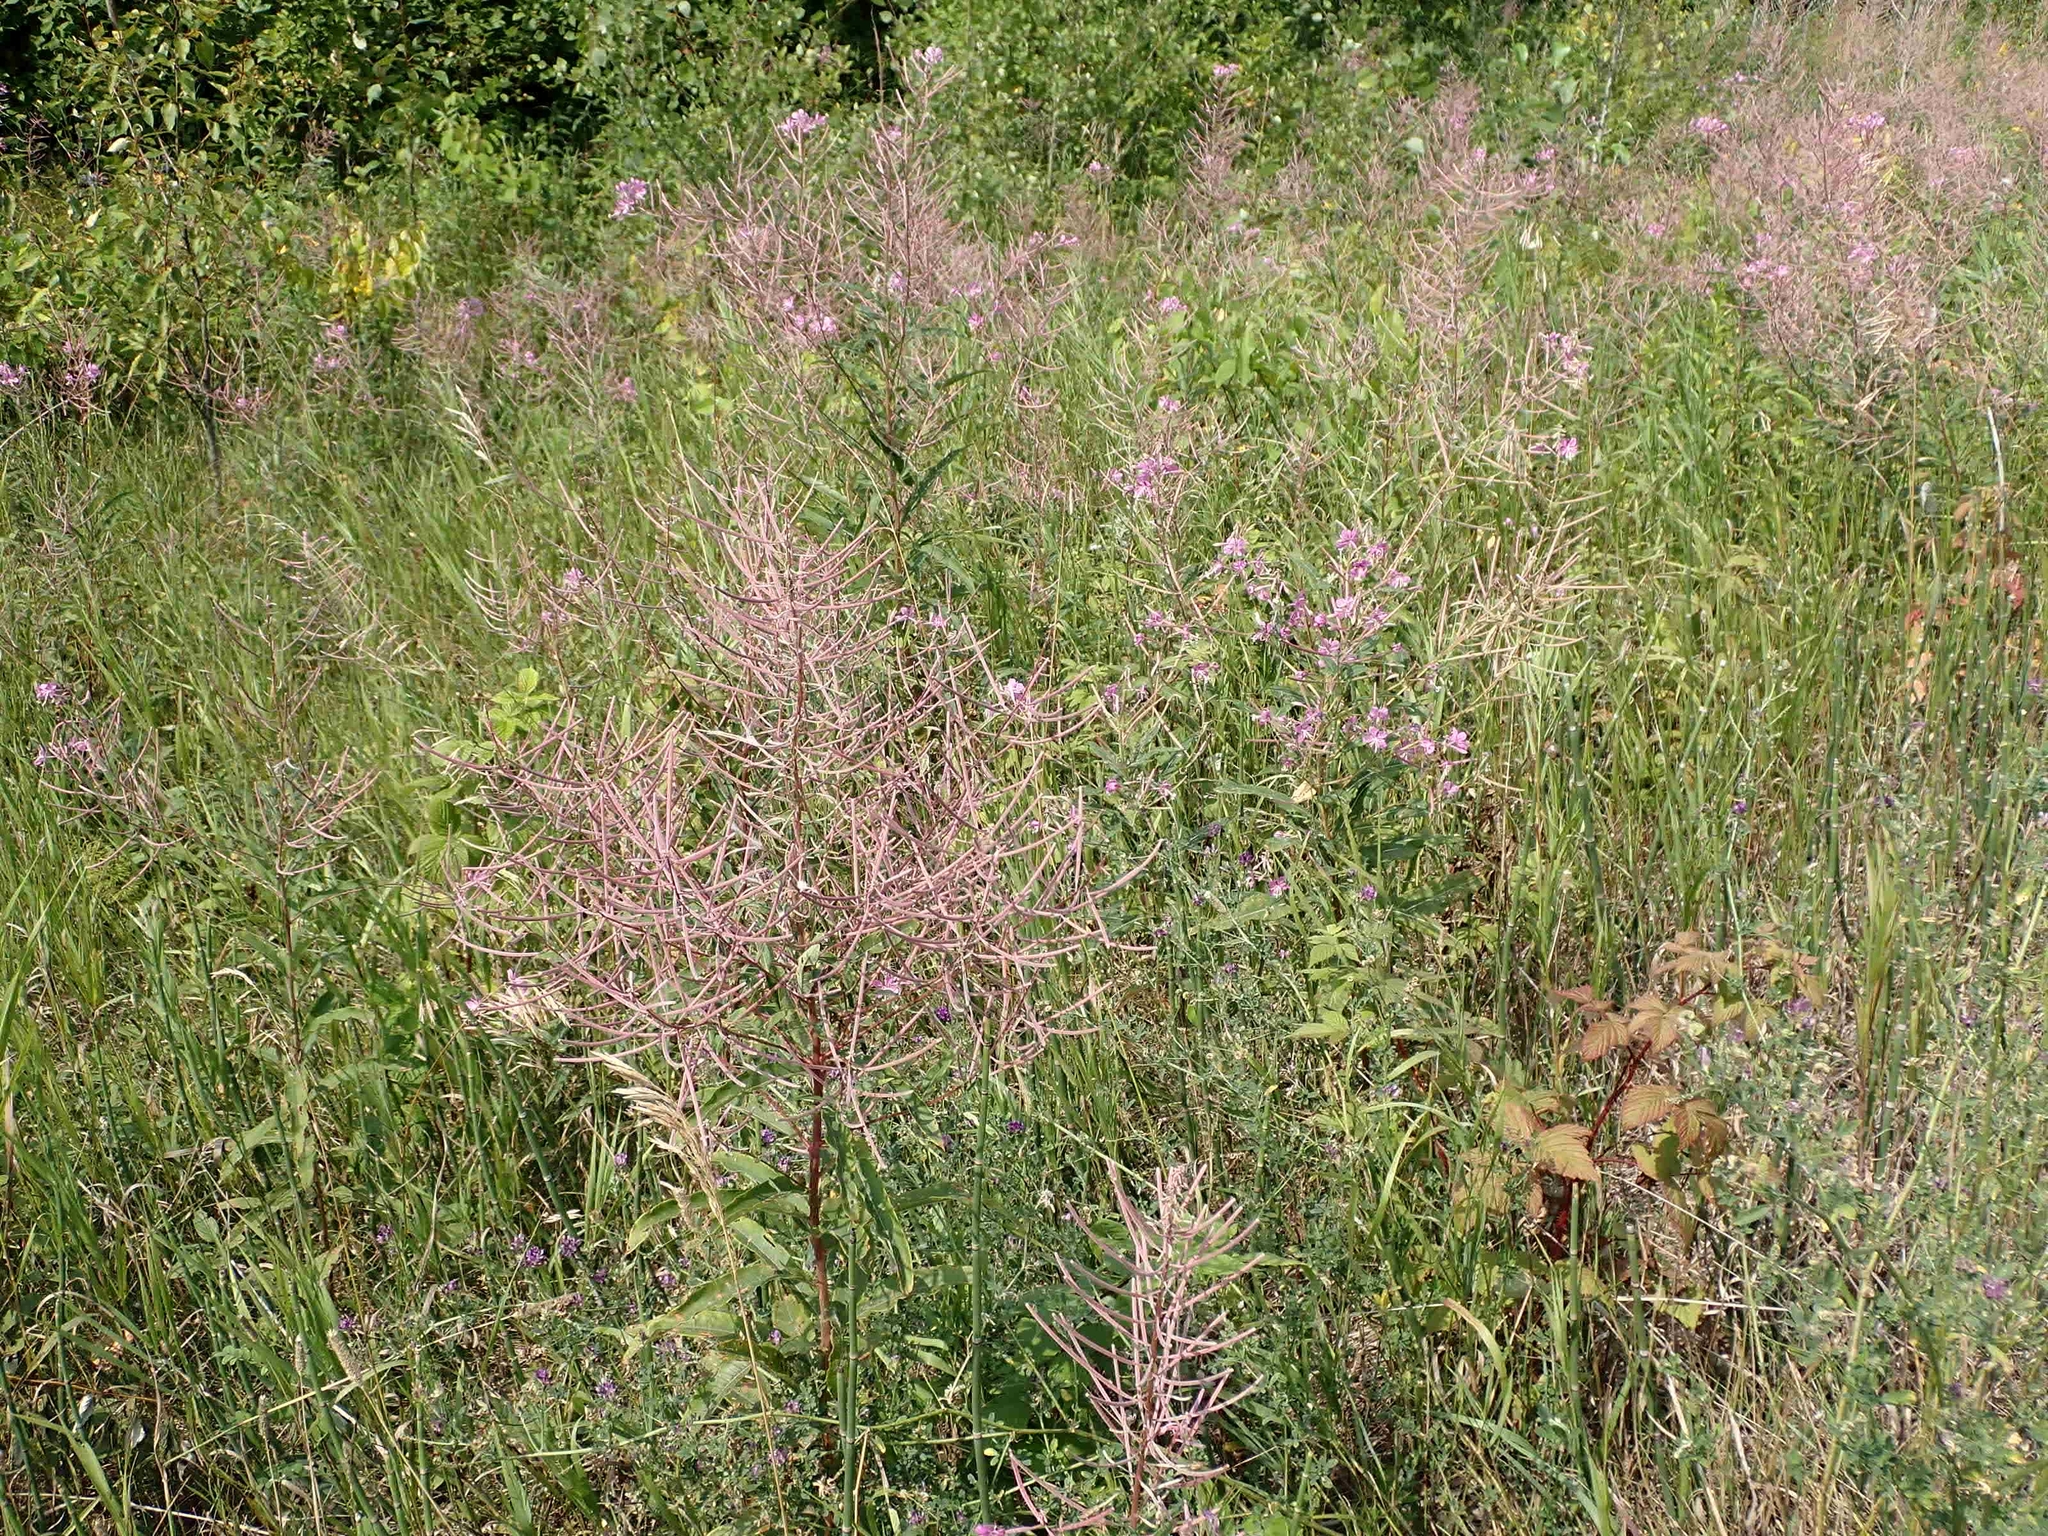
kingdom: Plantae
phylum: Tracheophyta
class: Magnoliopsida
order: Myrtales
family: Onagraceae
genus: Chamaenerion
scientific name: Chamaenerion angustifolium
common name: Fireweed
